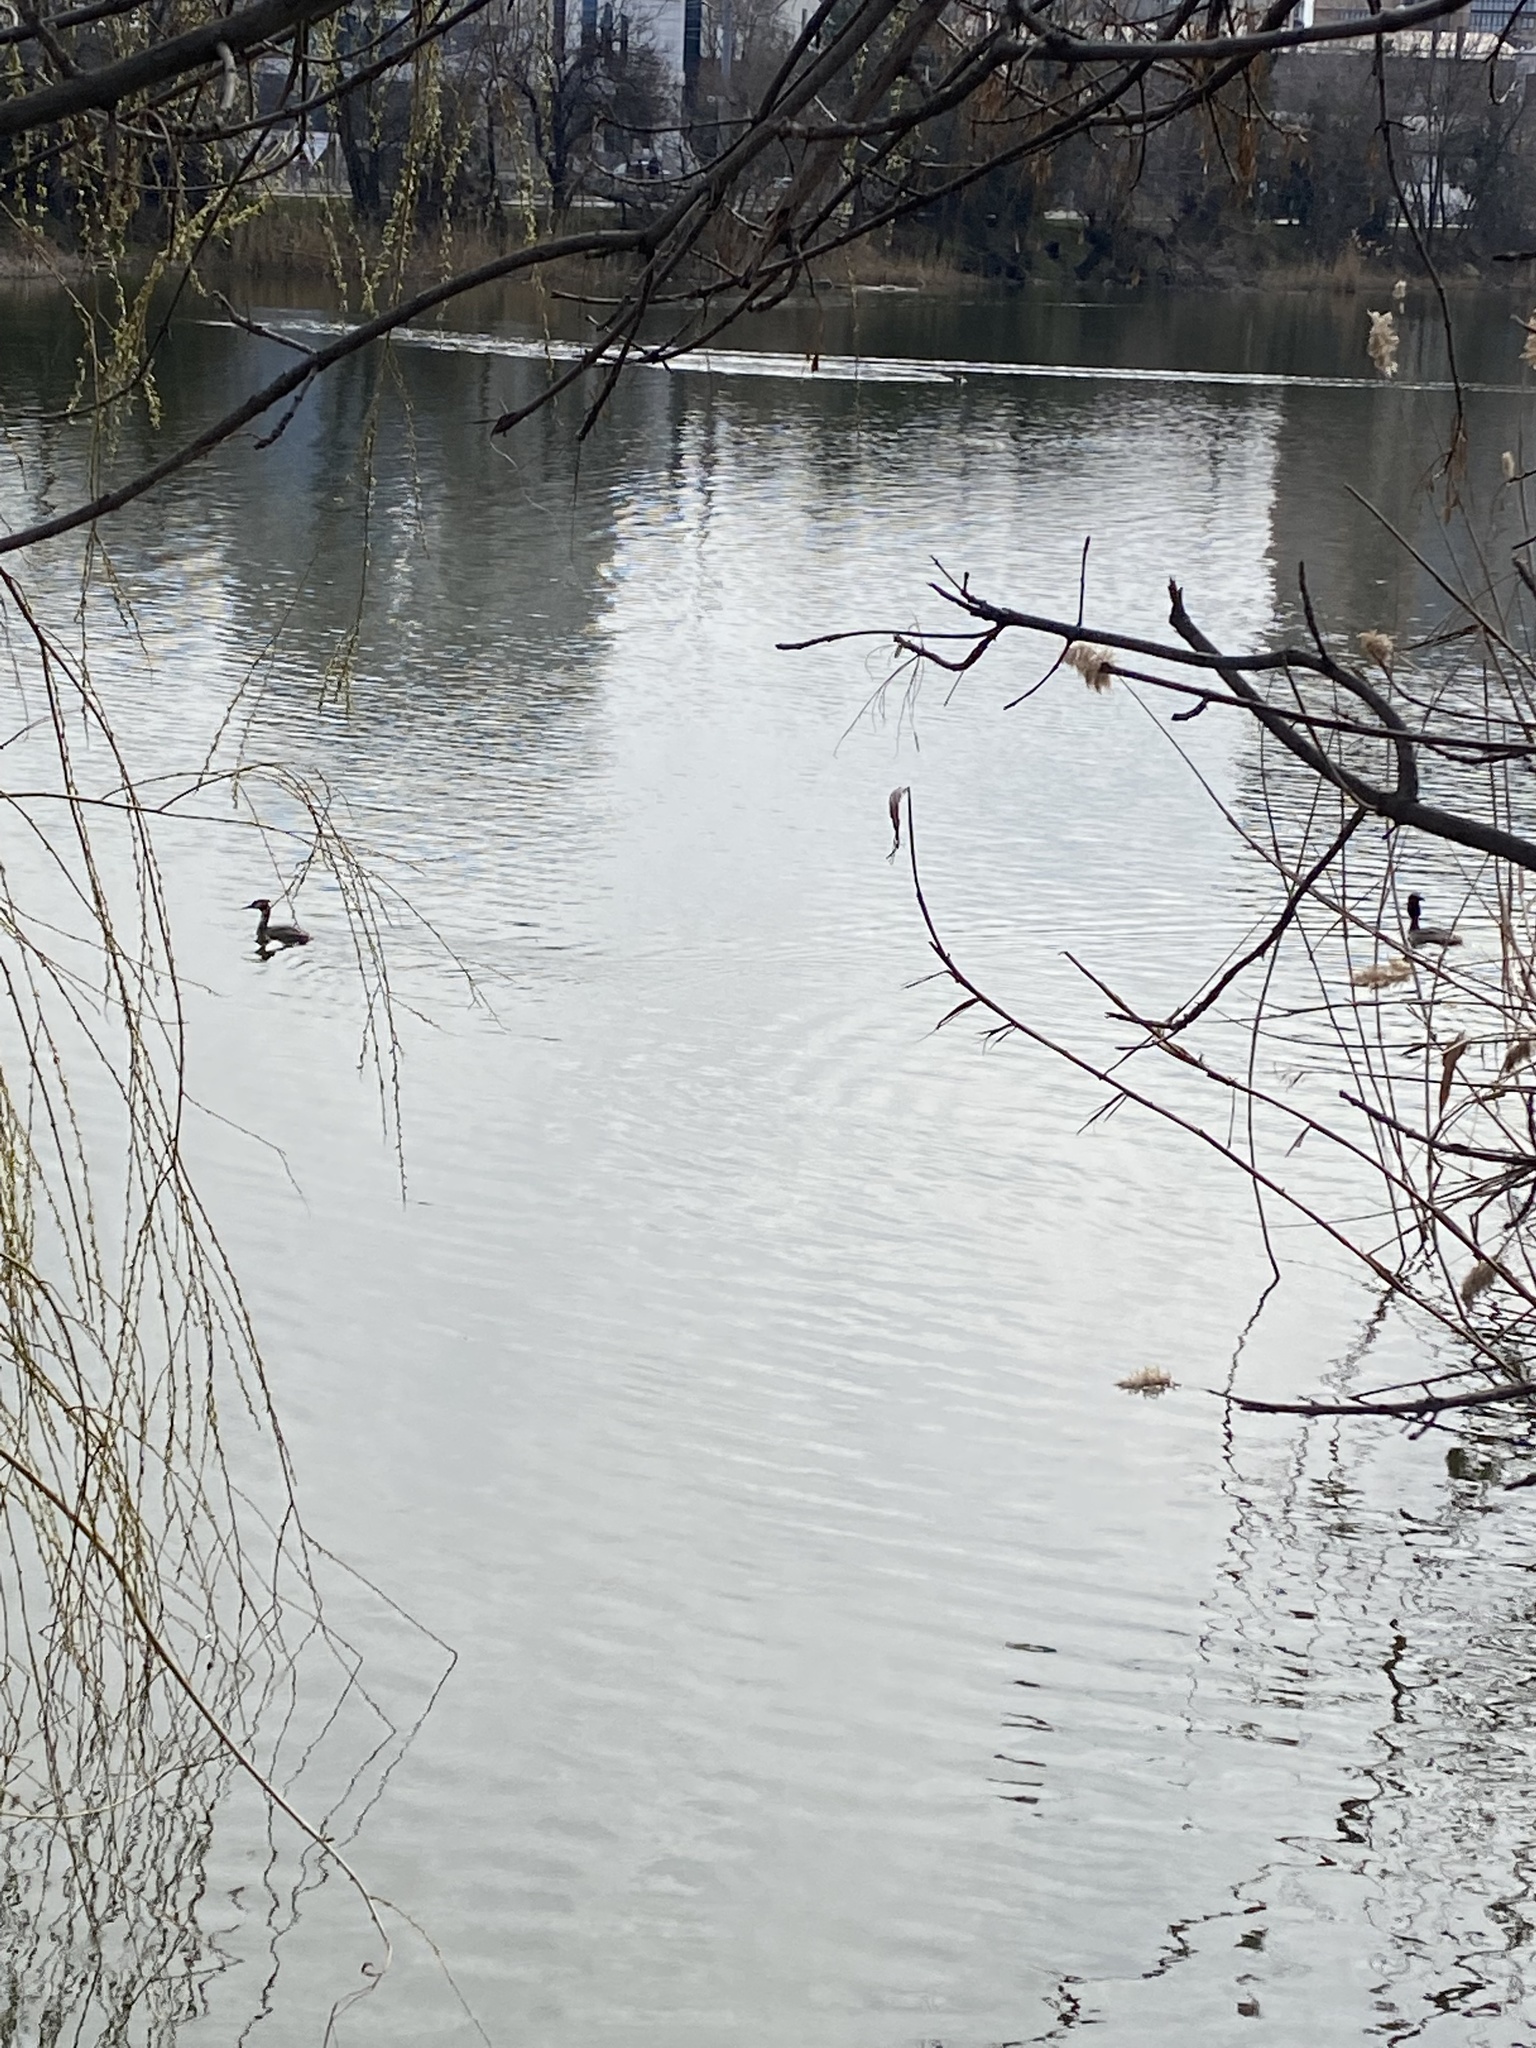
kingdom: Animalia
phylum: Chordata
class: Aves
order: Podicipediformes
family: Podicipedidae
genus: Podiceps
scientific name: Podiceps cristatus
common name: Great crested grebe
